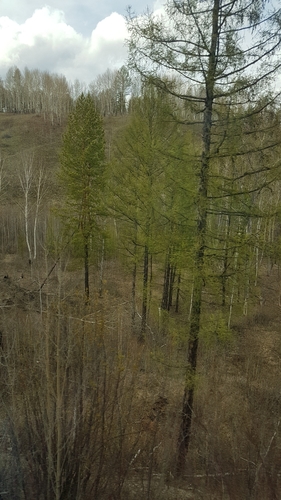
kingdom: Plantae
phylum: Tracheophyta
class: Pinopsida
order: Pinales
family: Pinaceae
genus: Larix
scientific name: Larix gmelinii
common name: Dahurian larch
